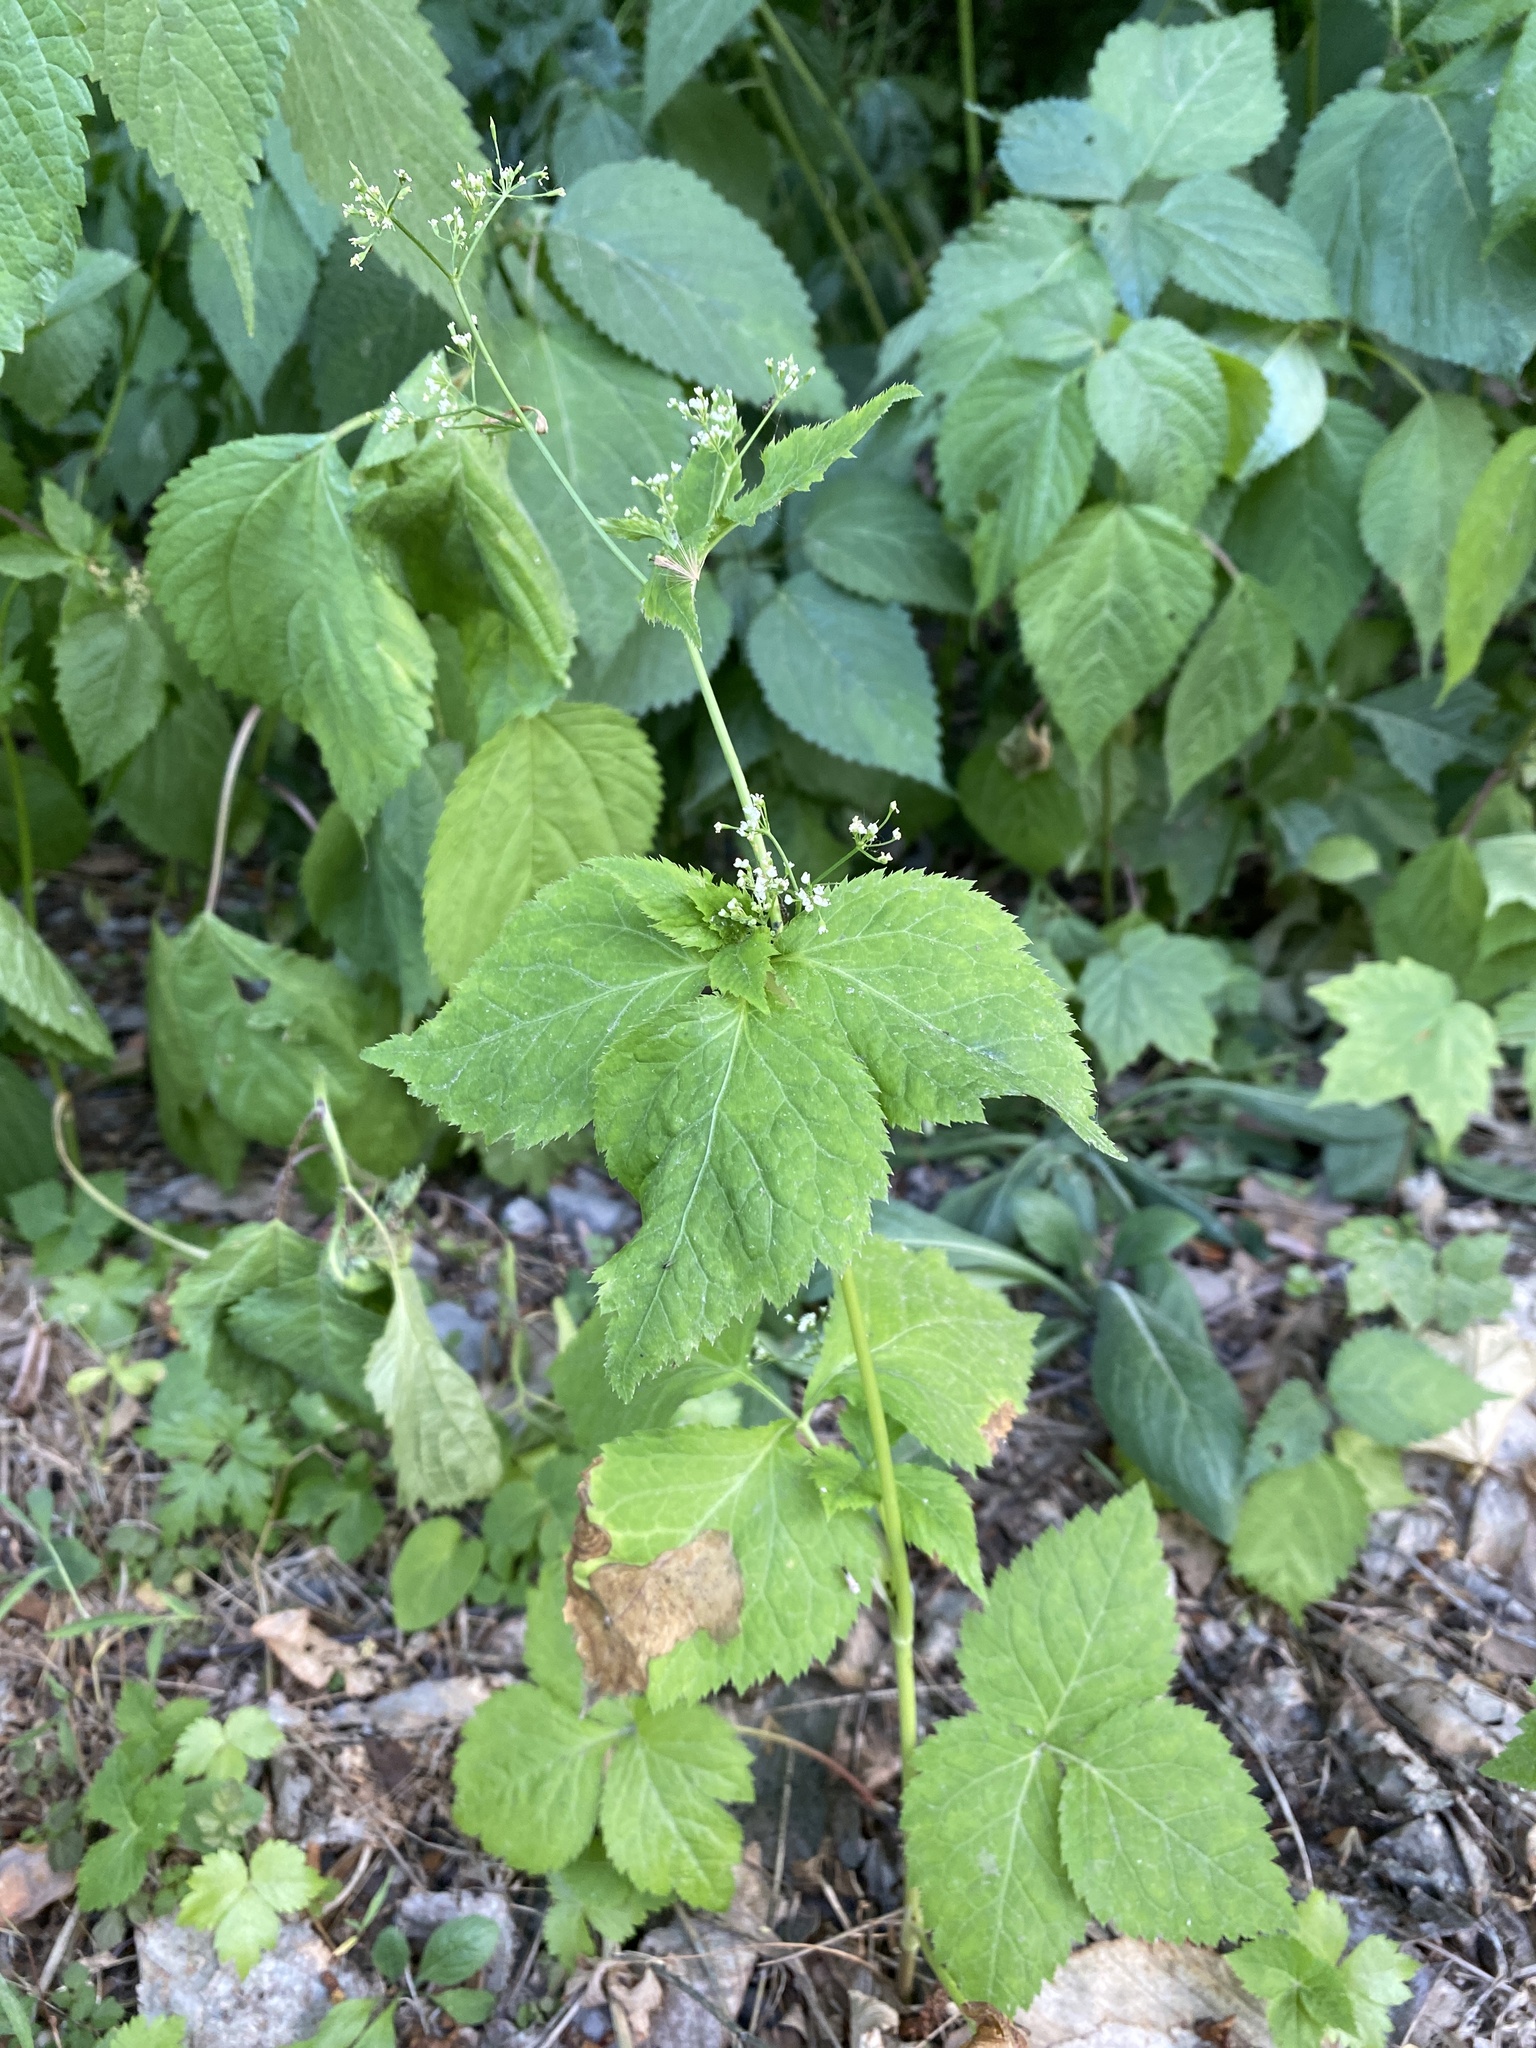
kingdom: Plantae
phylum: Tracheophyta
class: Magnoliopsida
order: Apiales
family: Apiaceae
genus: Cryptotaenia
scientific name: Cryptotaenia canadensis
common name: Honewort
